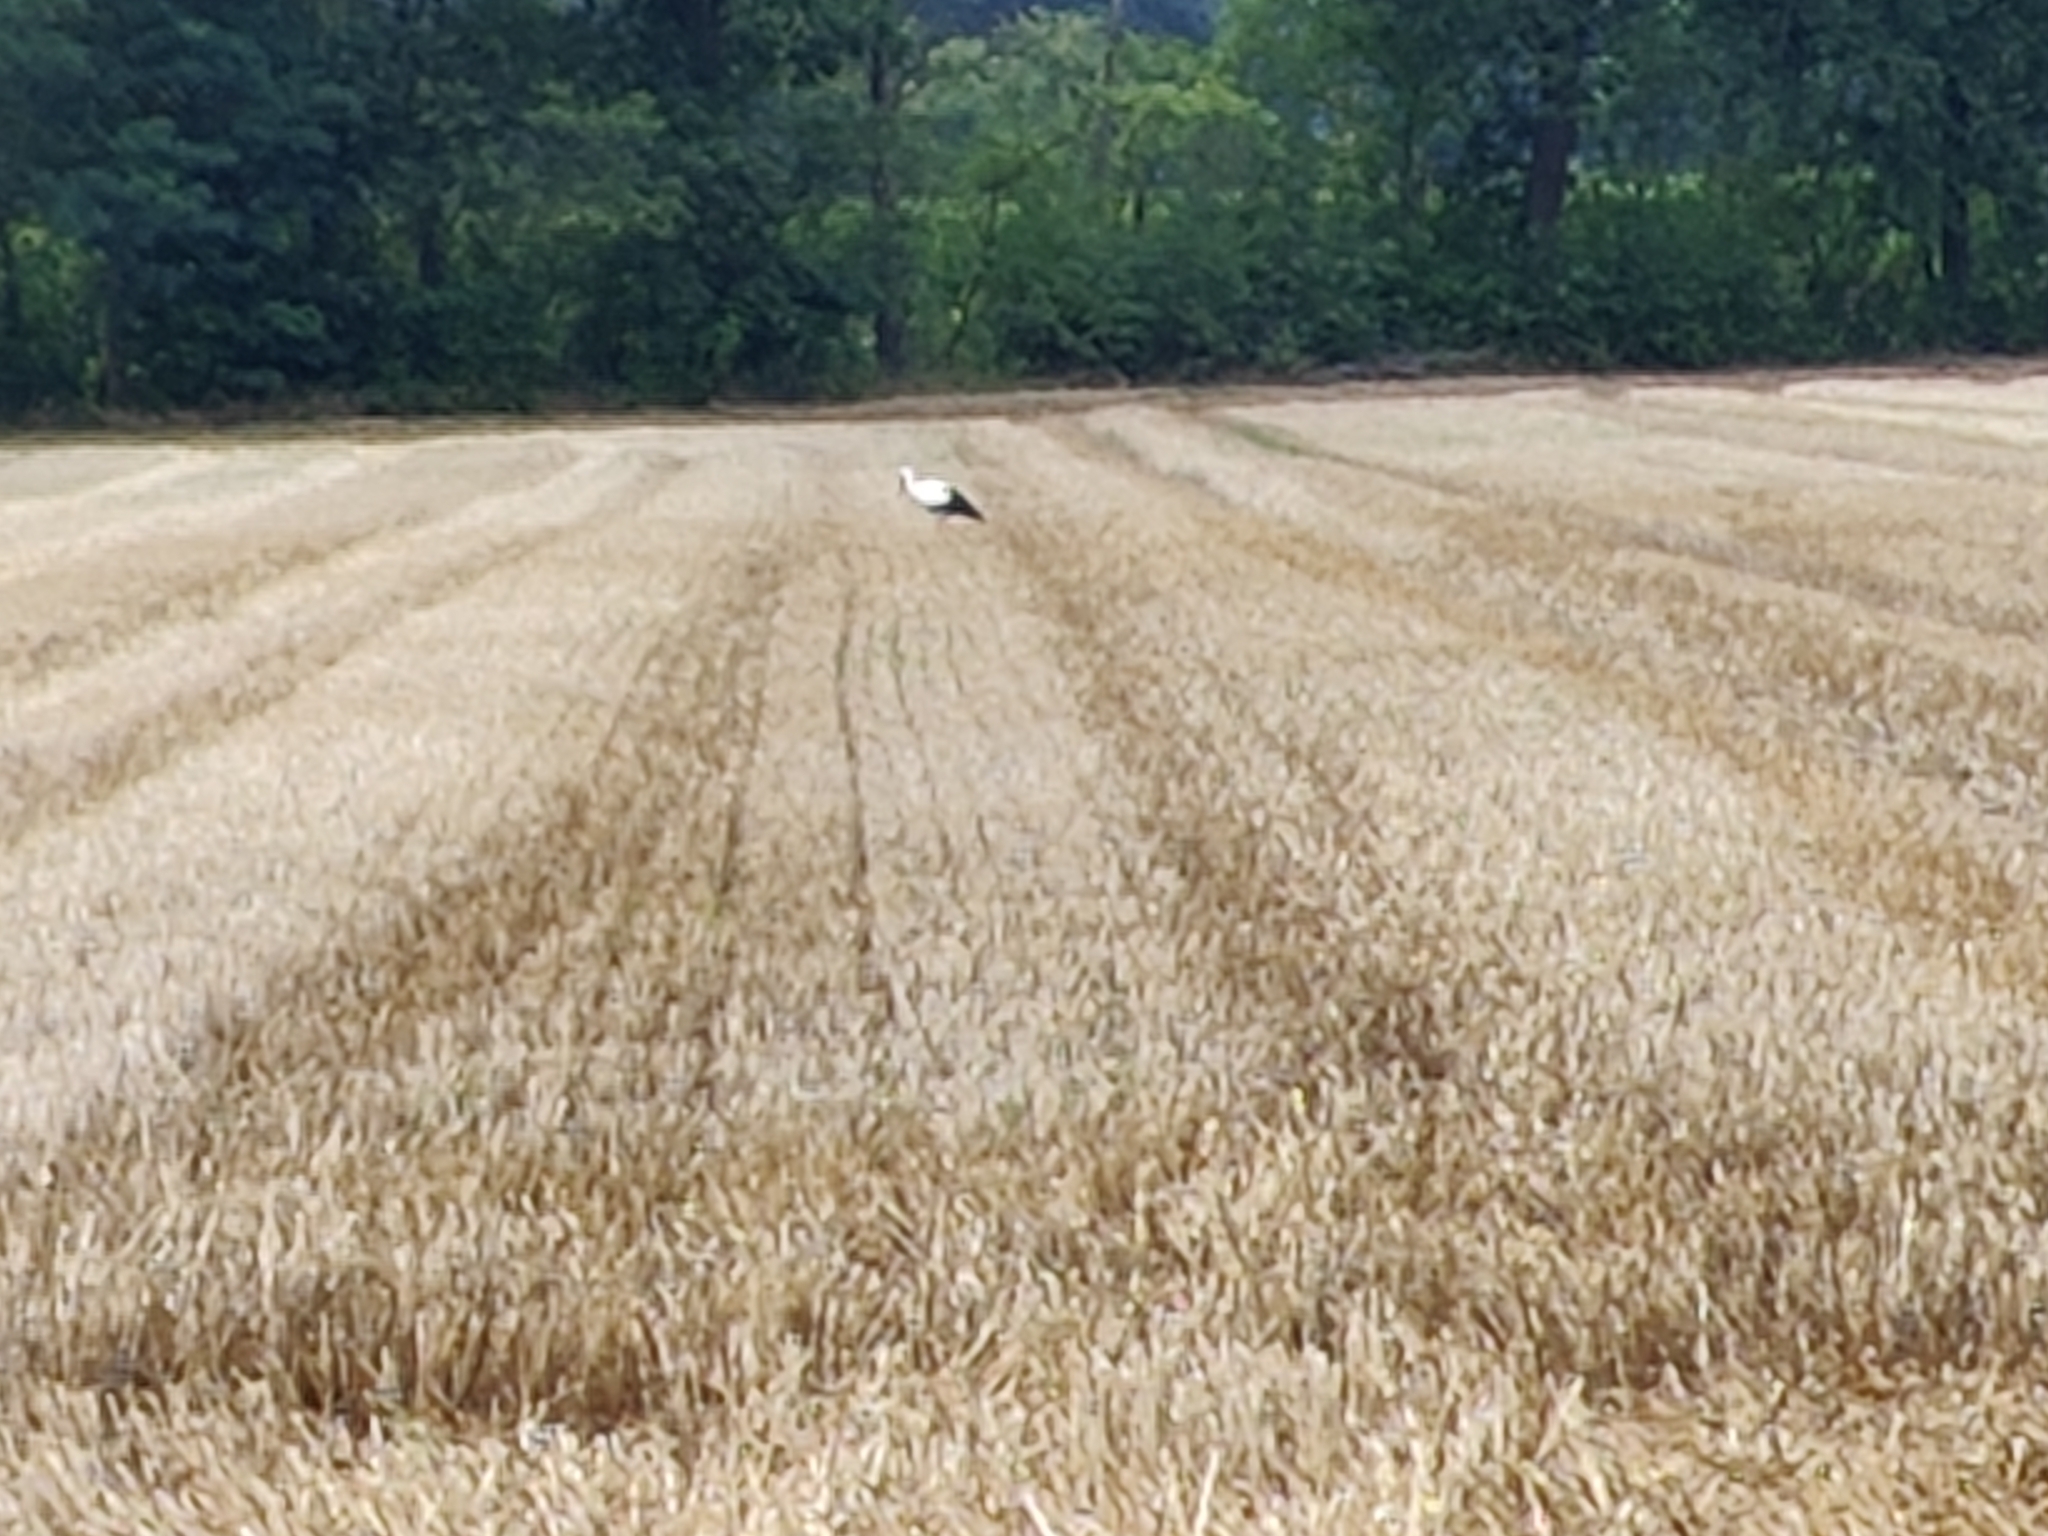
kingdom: Animalia
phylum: Chordata
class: Aves
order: Ciconiiformes
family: Ciconiidae
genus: Ciconia
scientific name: Ciconia ciconia
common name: White stork
